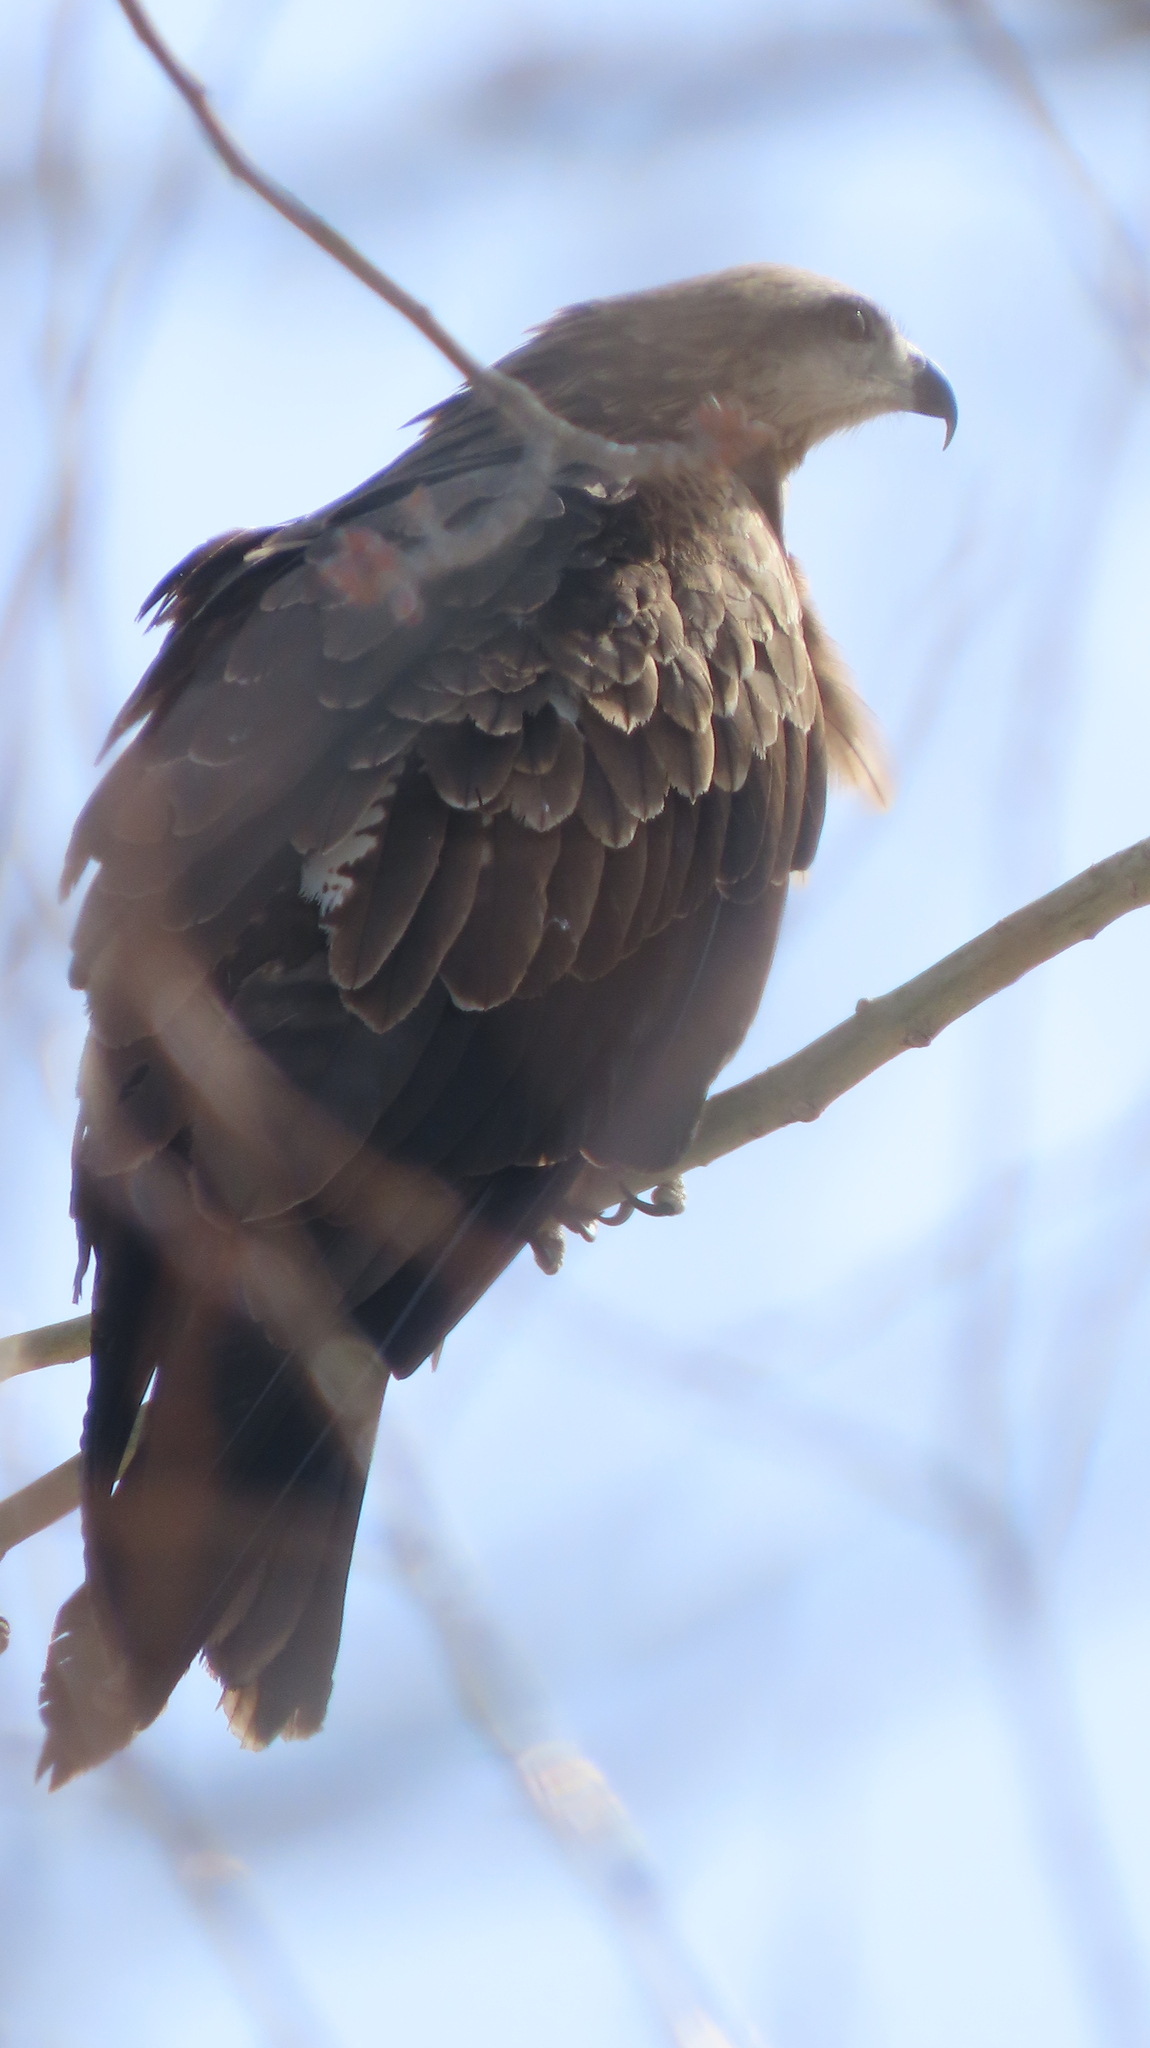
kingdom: Animalia
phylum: Chordata
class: Aves
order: Accipitriformes
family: Accipitridae
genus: Milvus
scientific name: Milvus migrans
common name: Black kite
